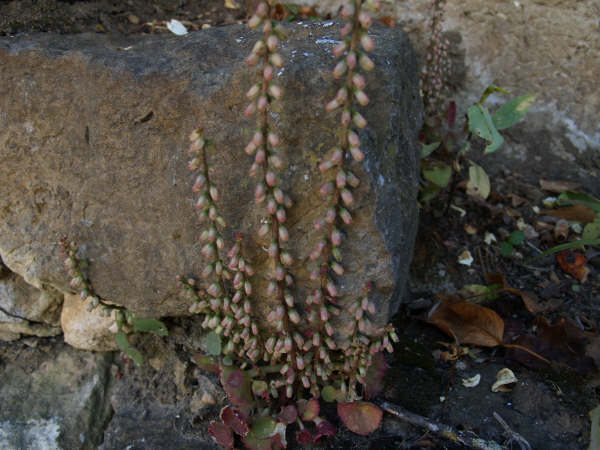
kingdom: Plantae
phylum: Tracheophyta
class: Magnoliopsida
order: Saxifragales
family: Crassulaceae
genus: Umbilicus
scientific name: Umbilicus rupestris
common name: Navelwort
